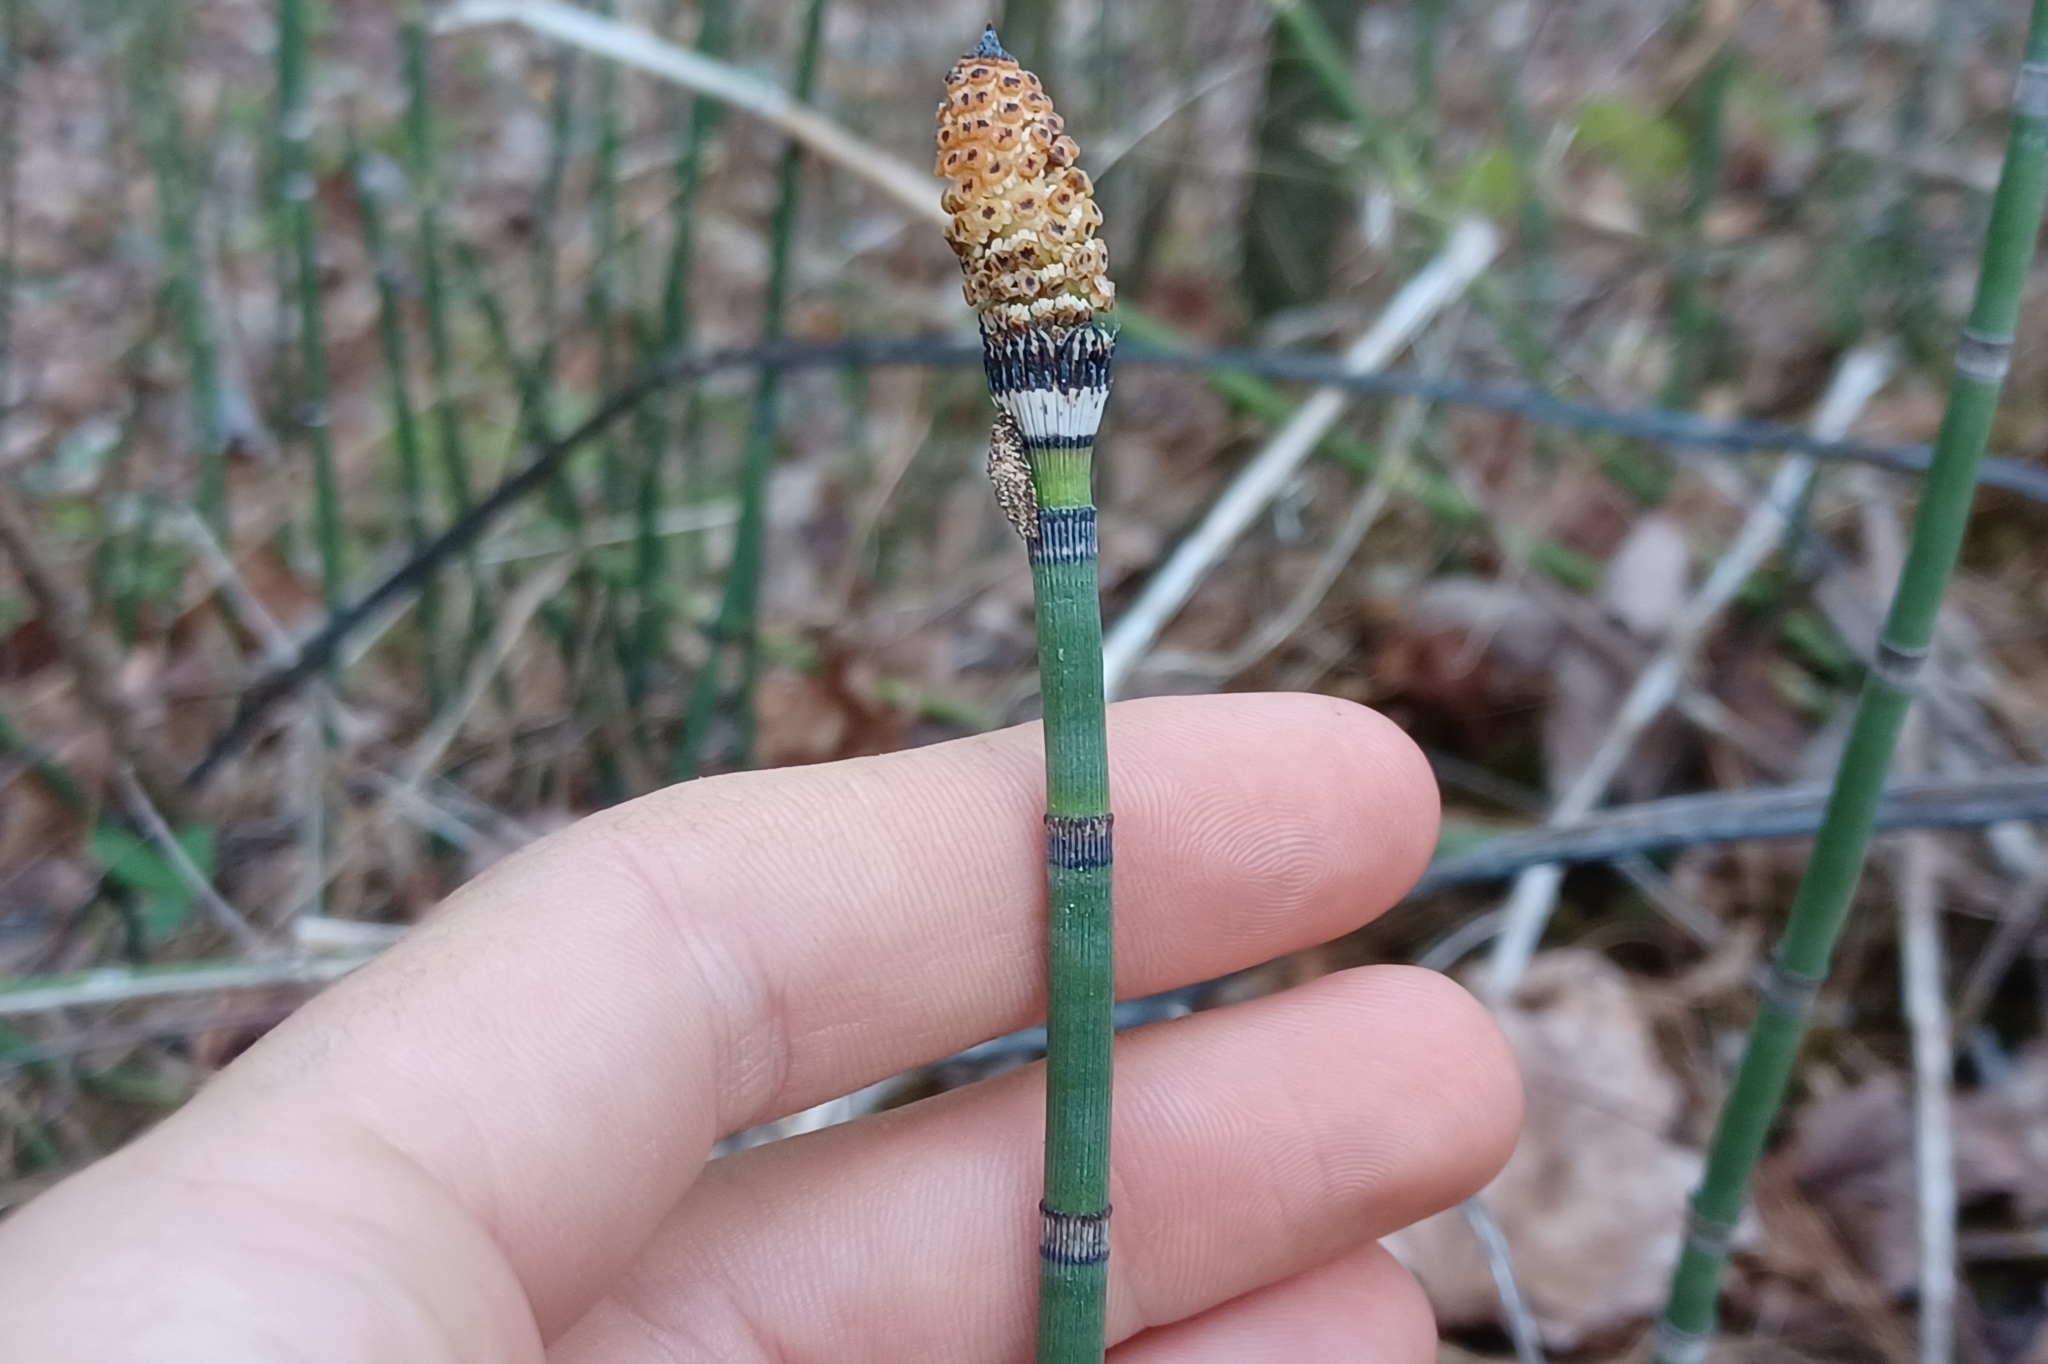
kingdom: Plantae
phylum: Tracheophyta
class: Polypodiopsida
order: Equisetales
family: Equisetaceae
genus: Equisetum
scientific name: Equisetum praealtum
